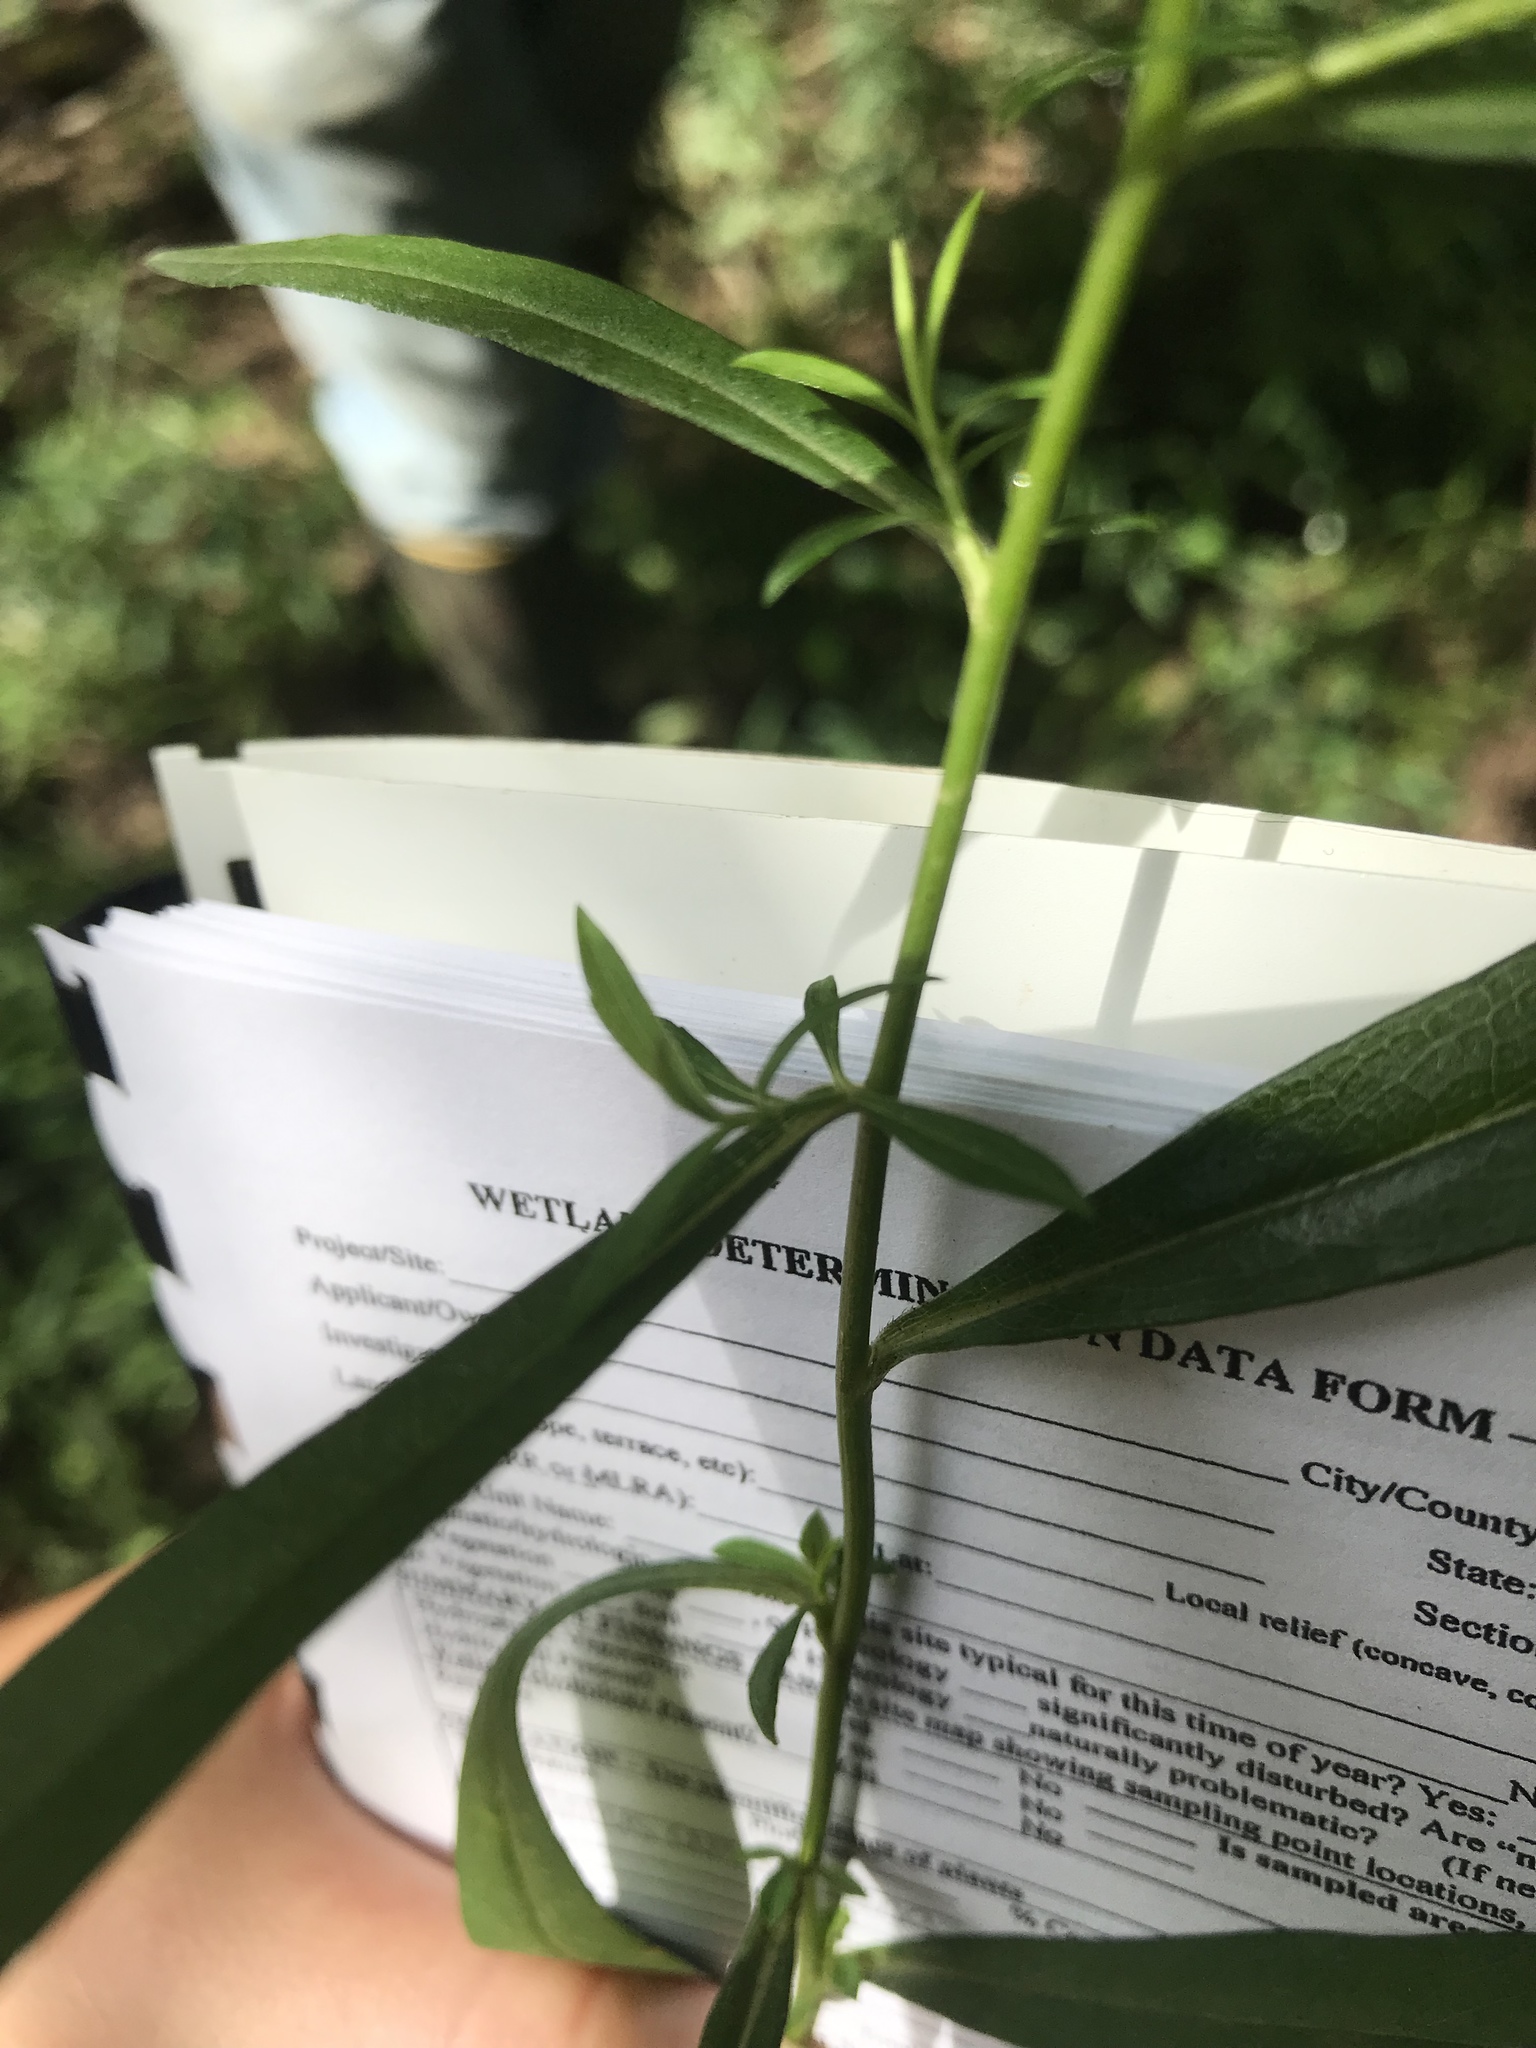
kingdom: Plantae
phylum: Tracheophyta
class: Magnoliopsida
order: Asterales
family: Asteraceae
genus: Symphyotrichum
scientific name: Symphyotrichum lateriflorum
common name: Calico aster
